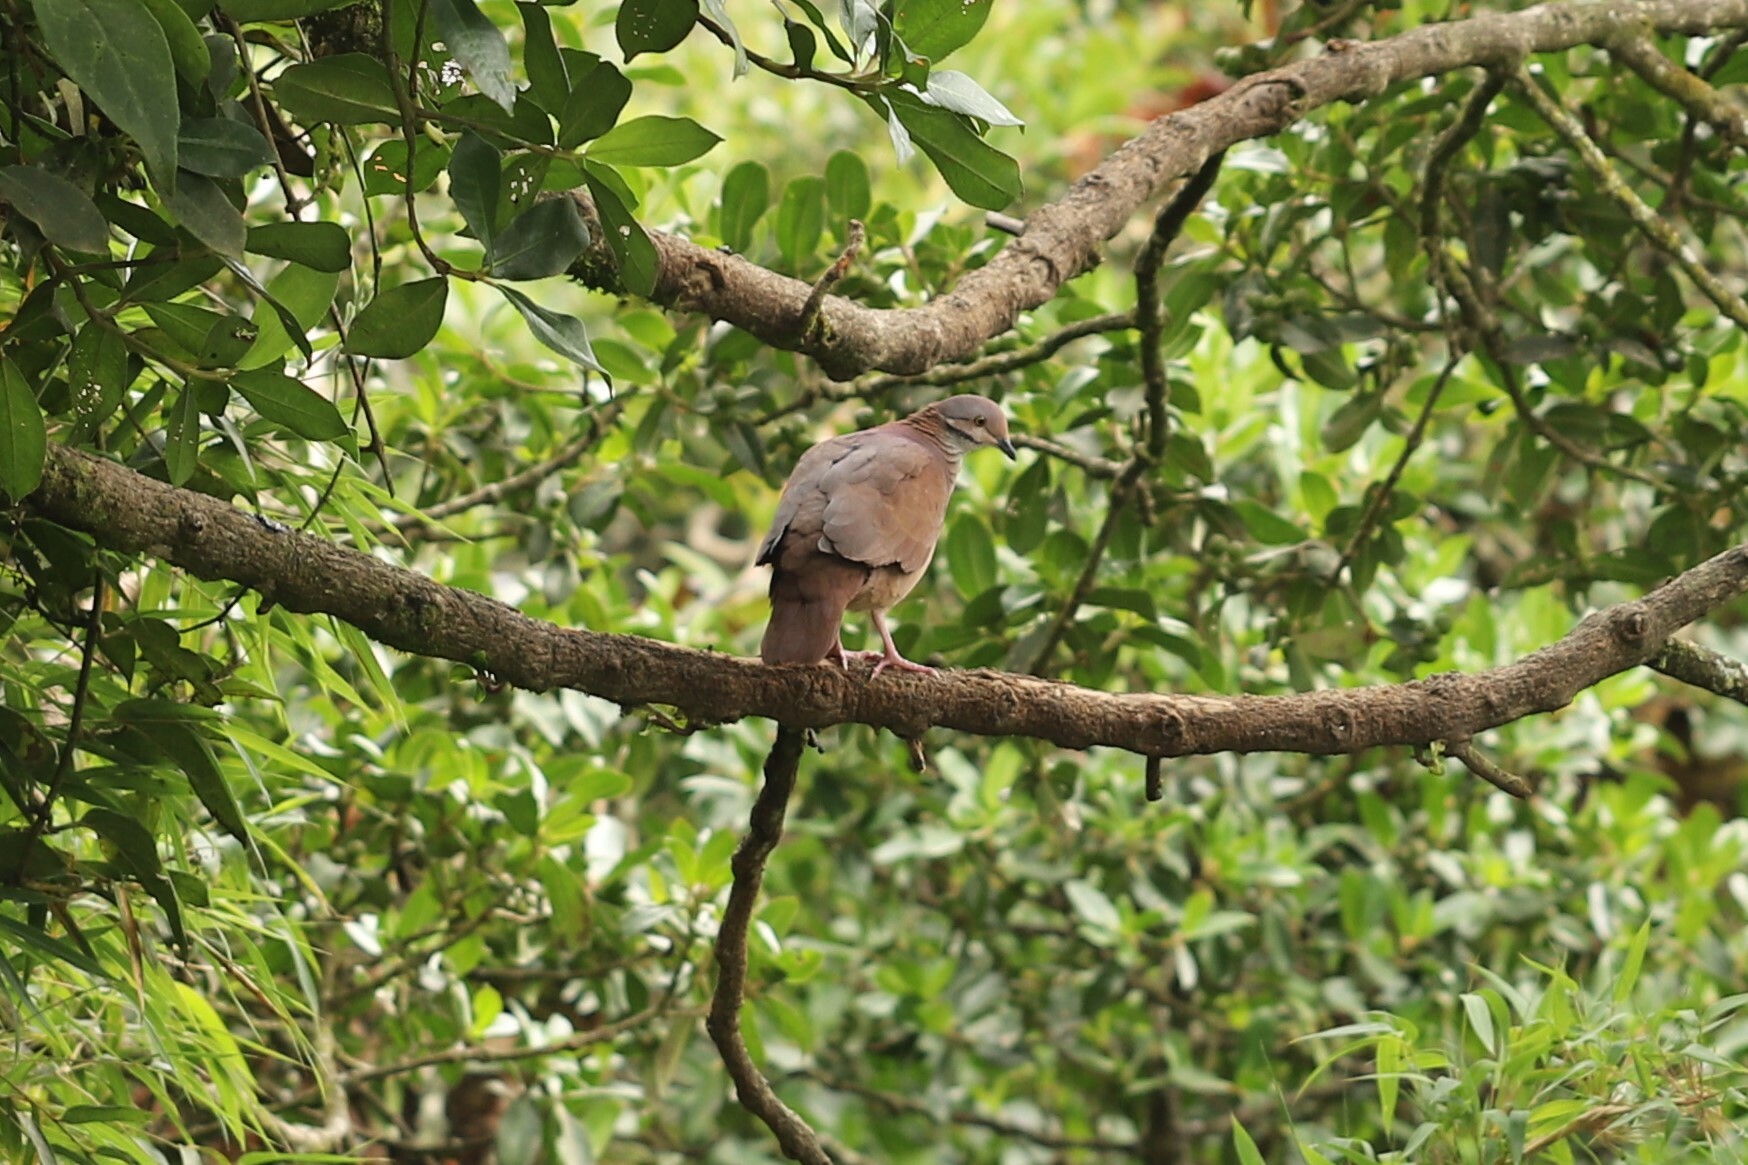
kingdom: Animalia
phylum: Chordata
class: Aves
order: Columbiformes
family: Columbidae
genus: Zentrygon
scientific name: Zentrygon frenata
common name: White-throated quail-dove
